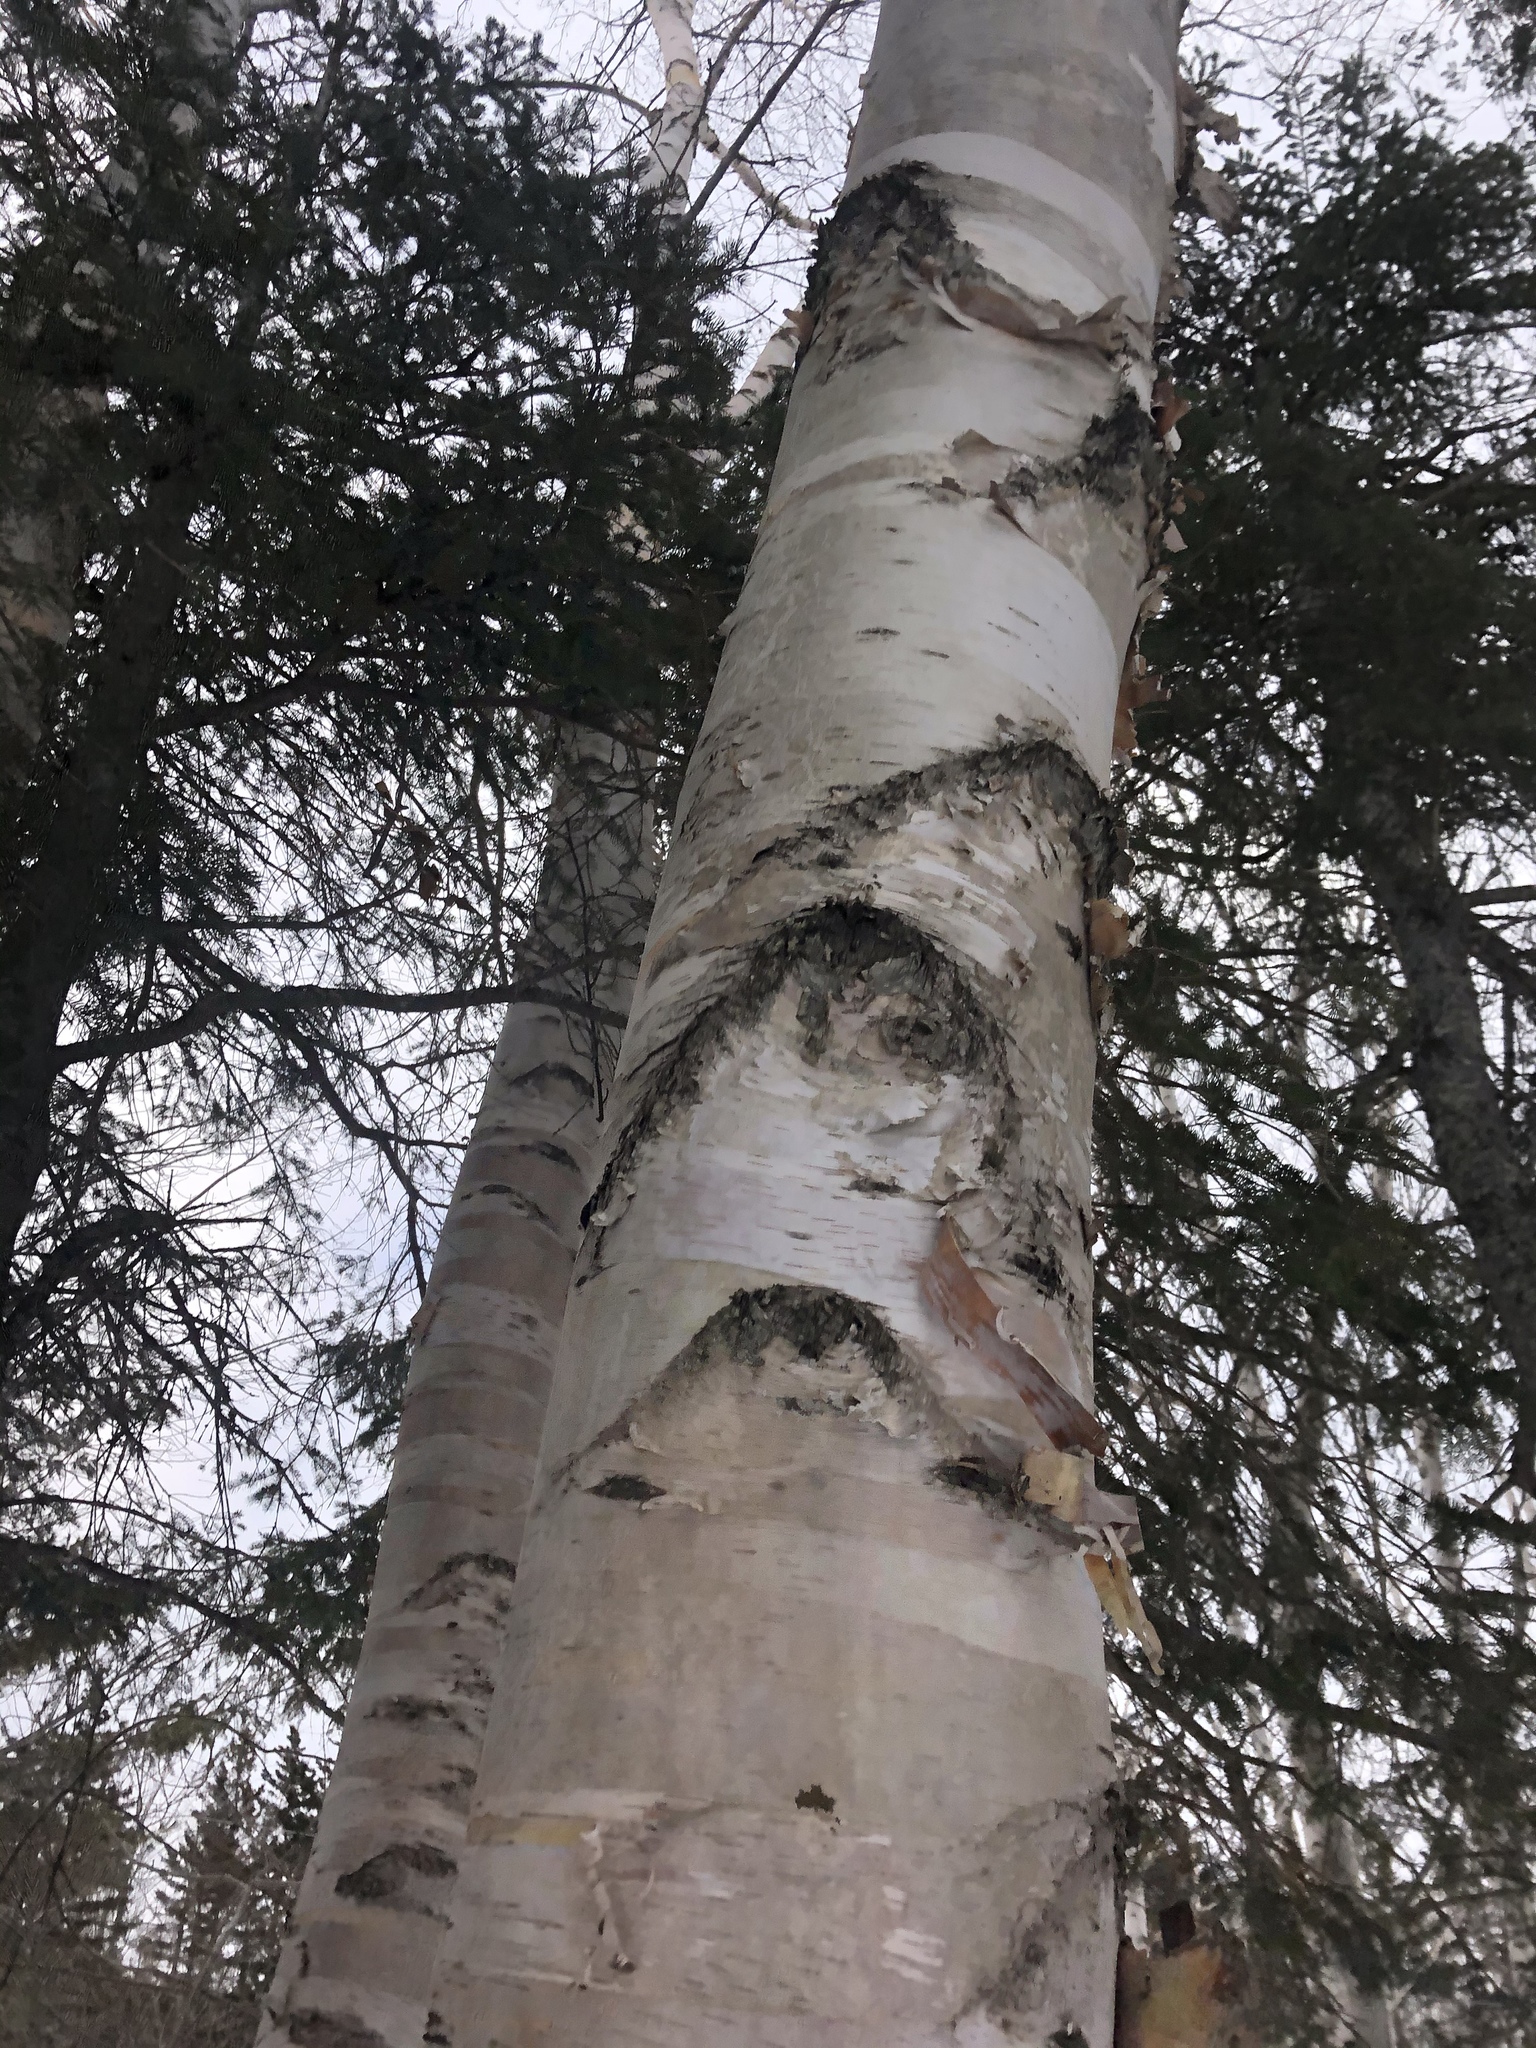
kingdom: Plantae
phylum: Tracheophyta
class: Magnoliopsida
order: Fagales
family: Betulaceae
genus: Betula
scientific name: Betula papyrifera
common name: Paper birch
